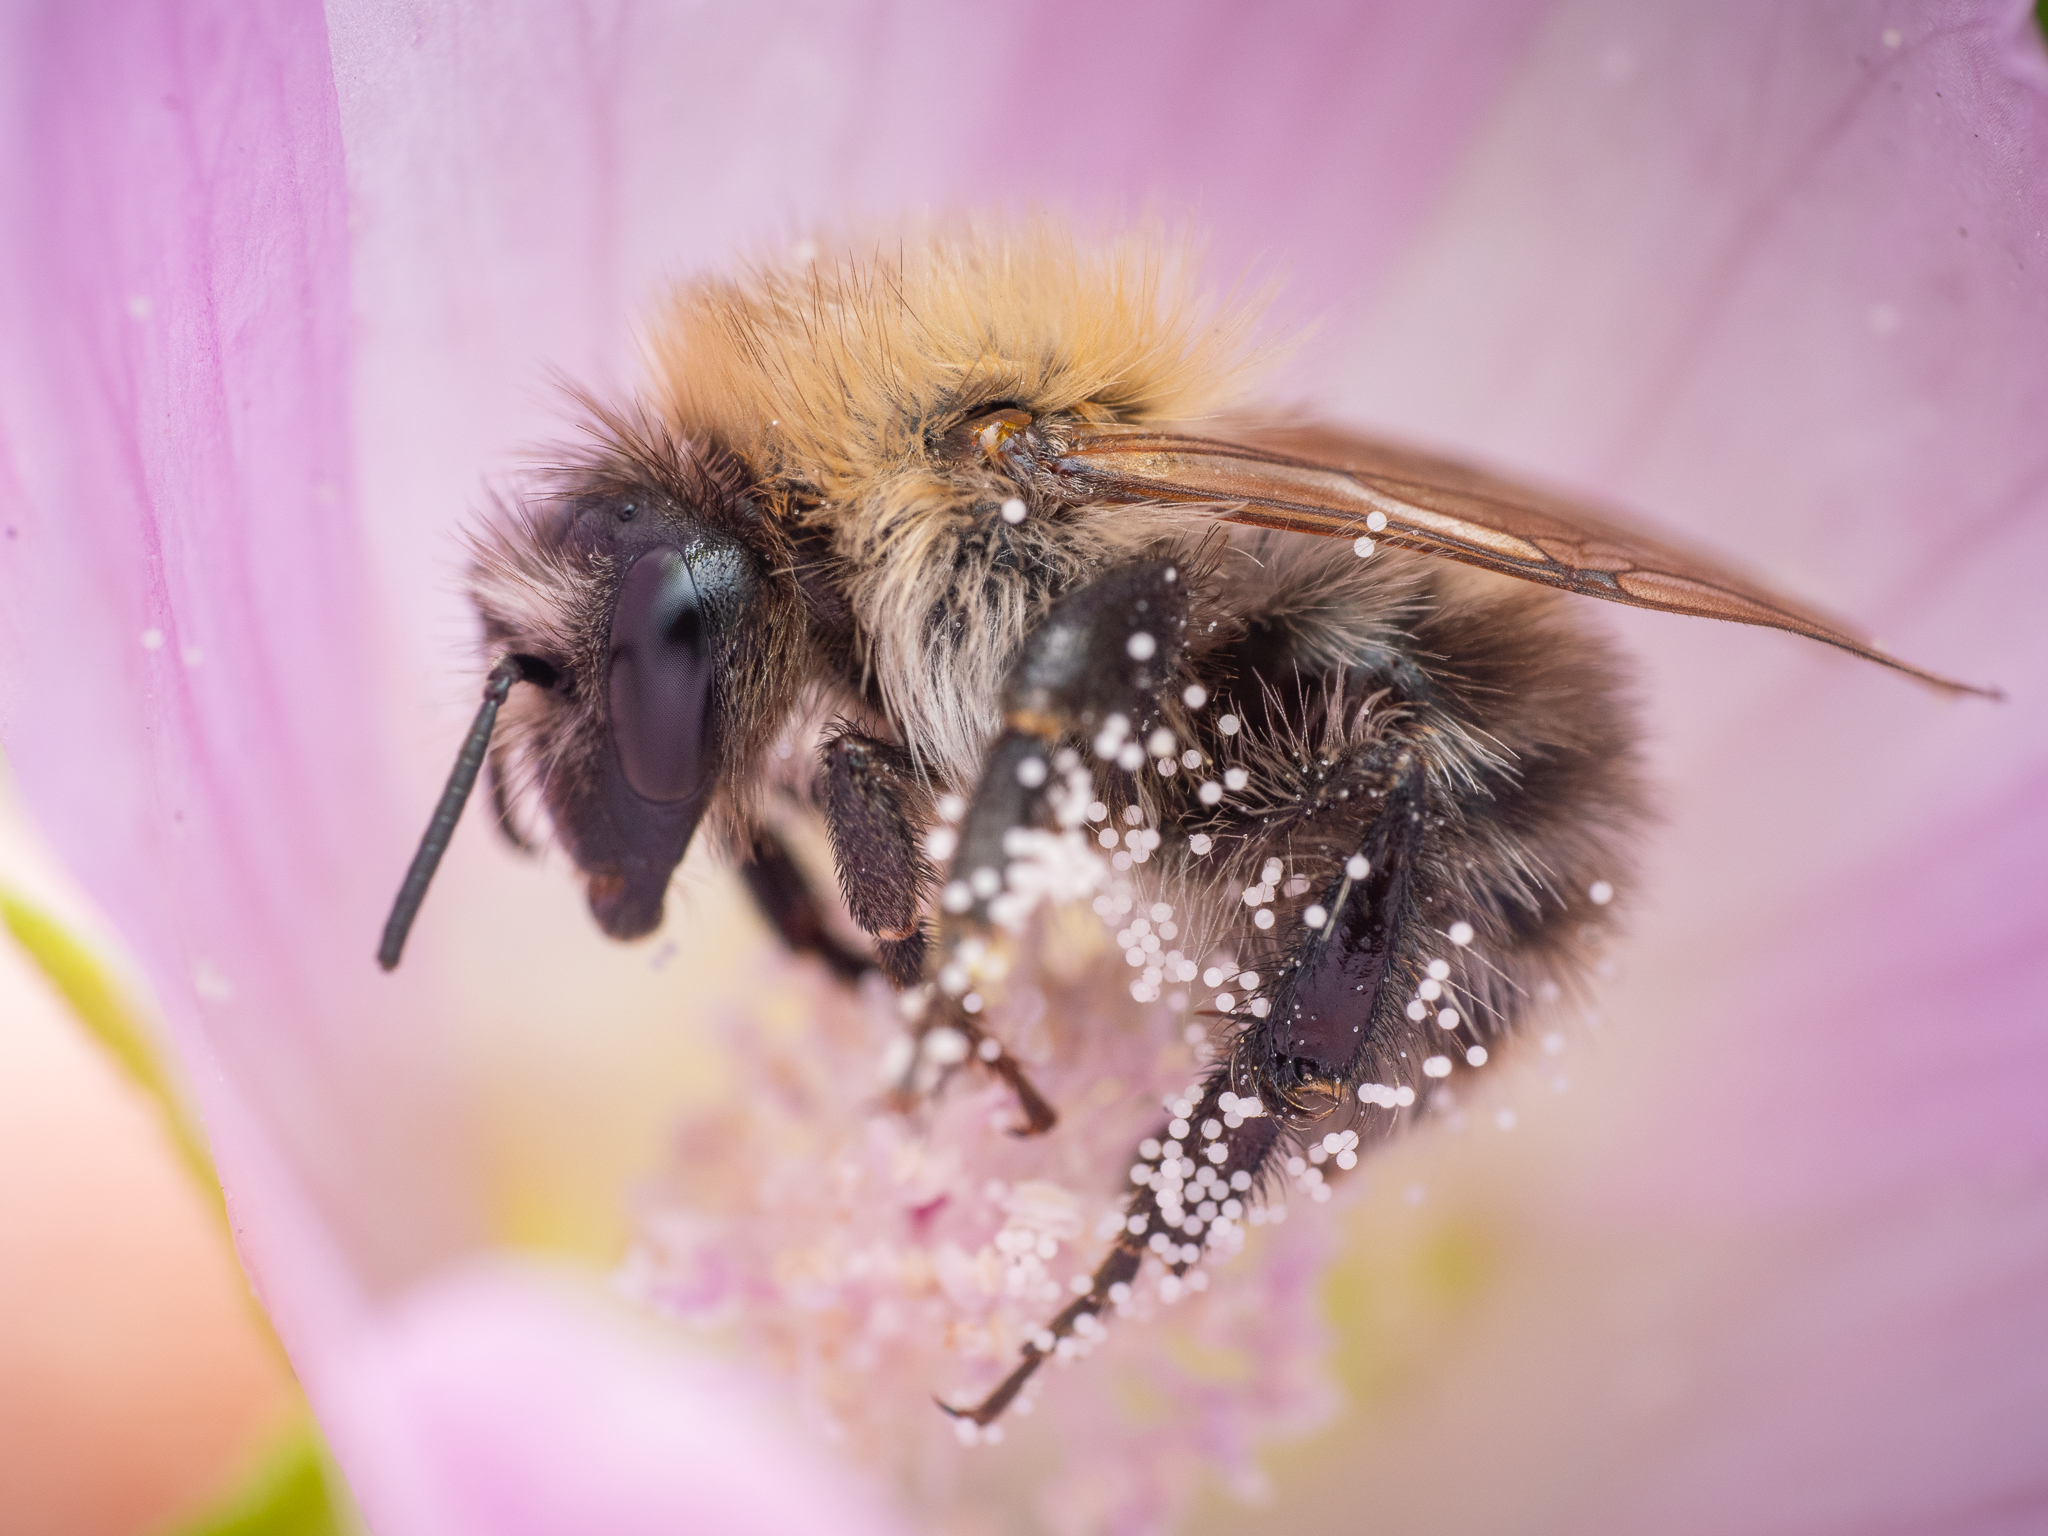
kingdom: Animalia
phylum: Arthropoda
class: Insecta
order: Hymenoptera
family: Apidae
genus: Bombus
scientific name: Bombus pascuorum
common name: Common carder bee
